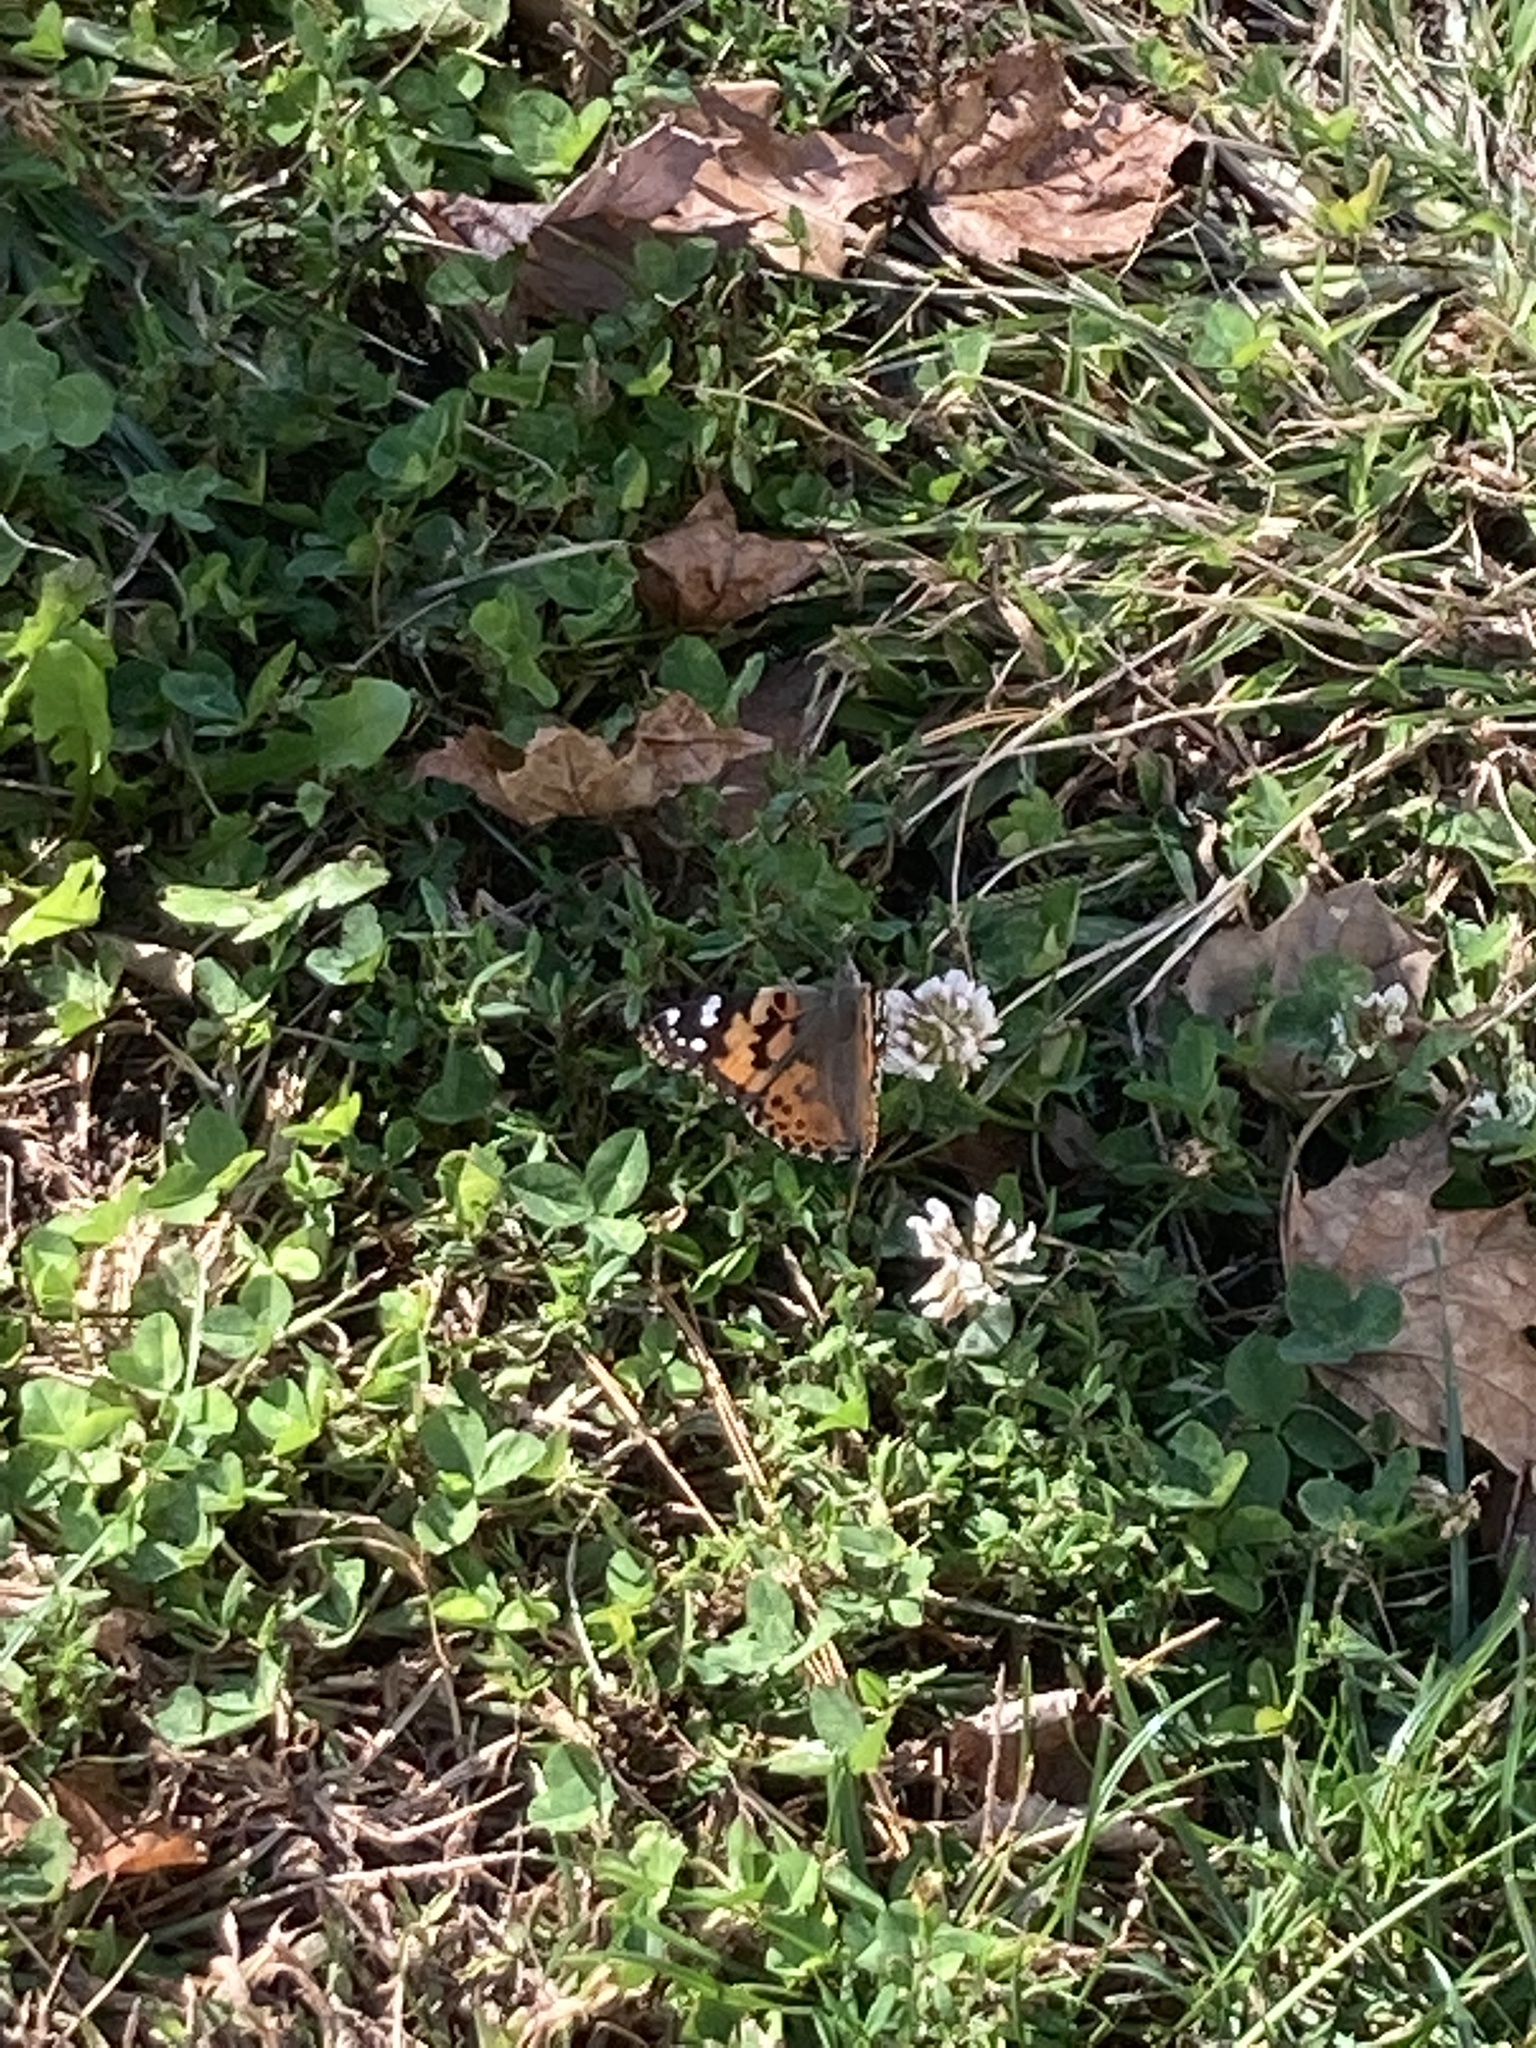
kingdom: Animalia
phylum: Arthropoda
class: Insecta
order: Lepidoptera
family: Nymphalidae
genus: Vanessa
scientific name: Vanessa cardui
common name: Painted lady
